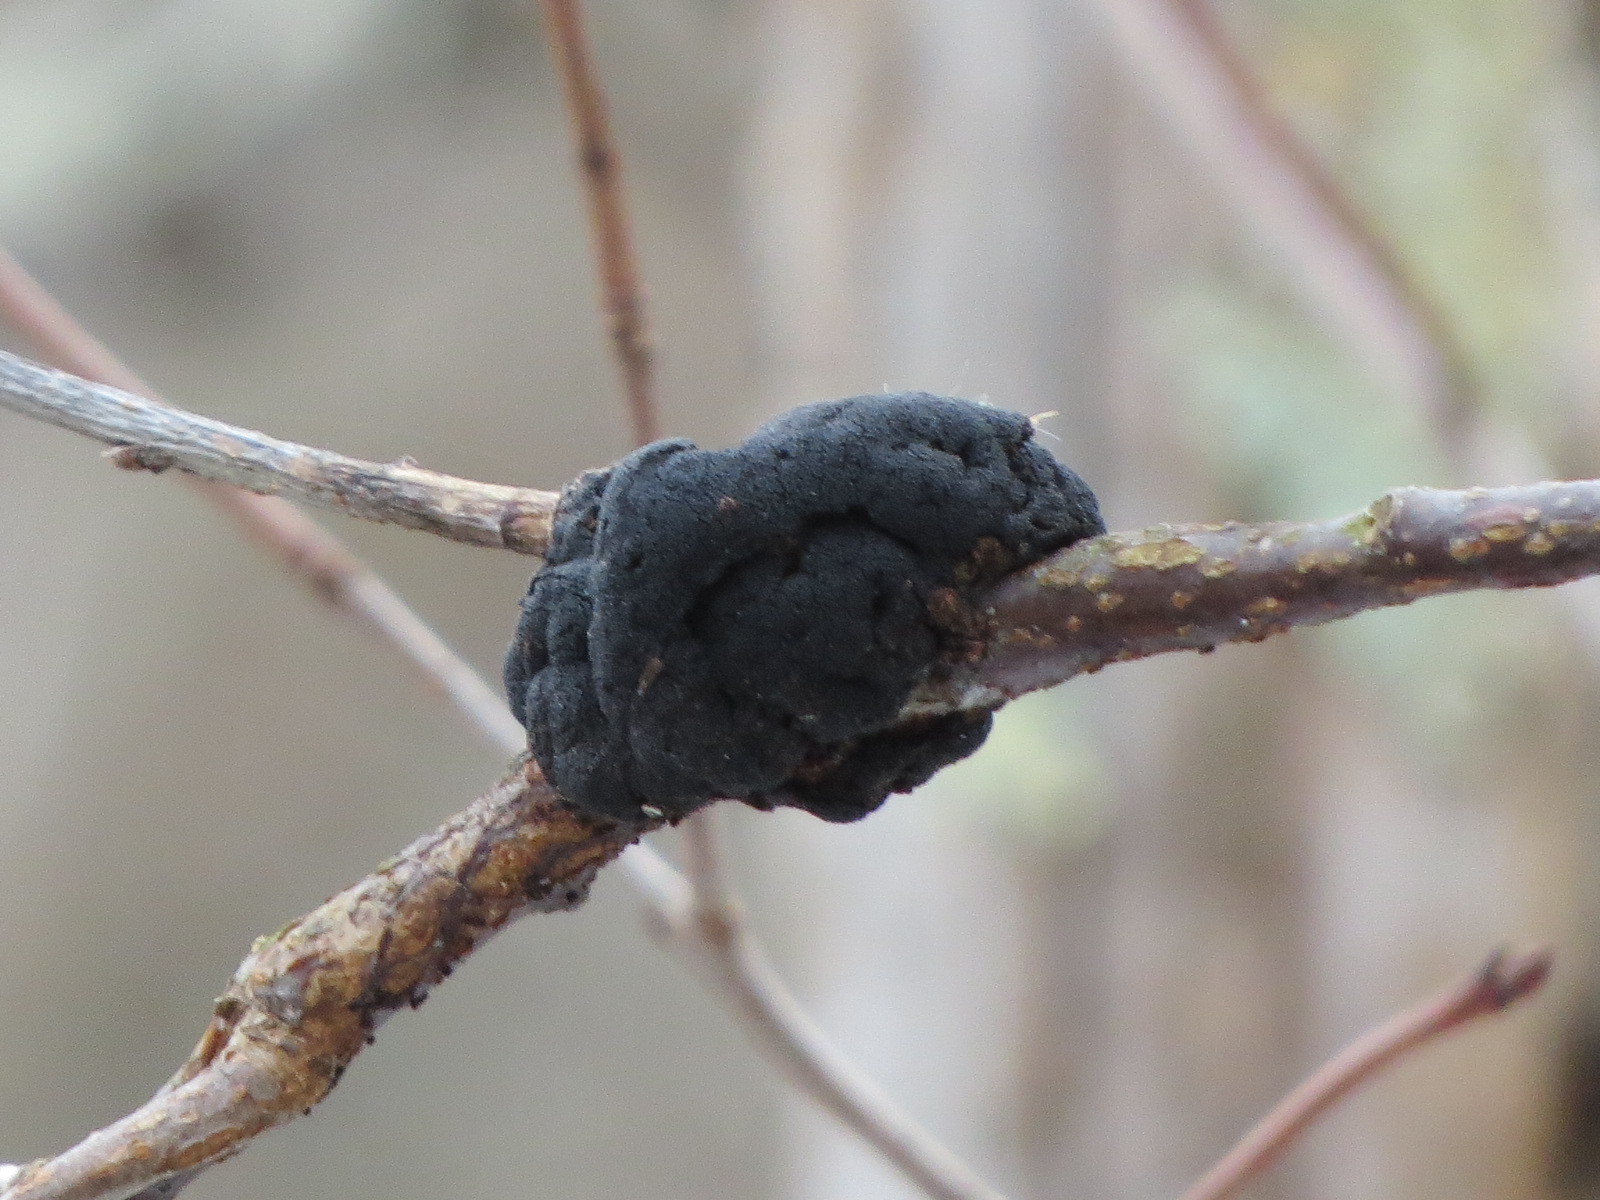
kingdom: Fungi
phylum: Ascomycota
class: Dothideomycetes
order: Venturiales
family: Venturiaceae
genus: Apiosporina
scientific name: Apiosporina morbosa
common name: Black knot
